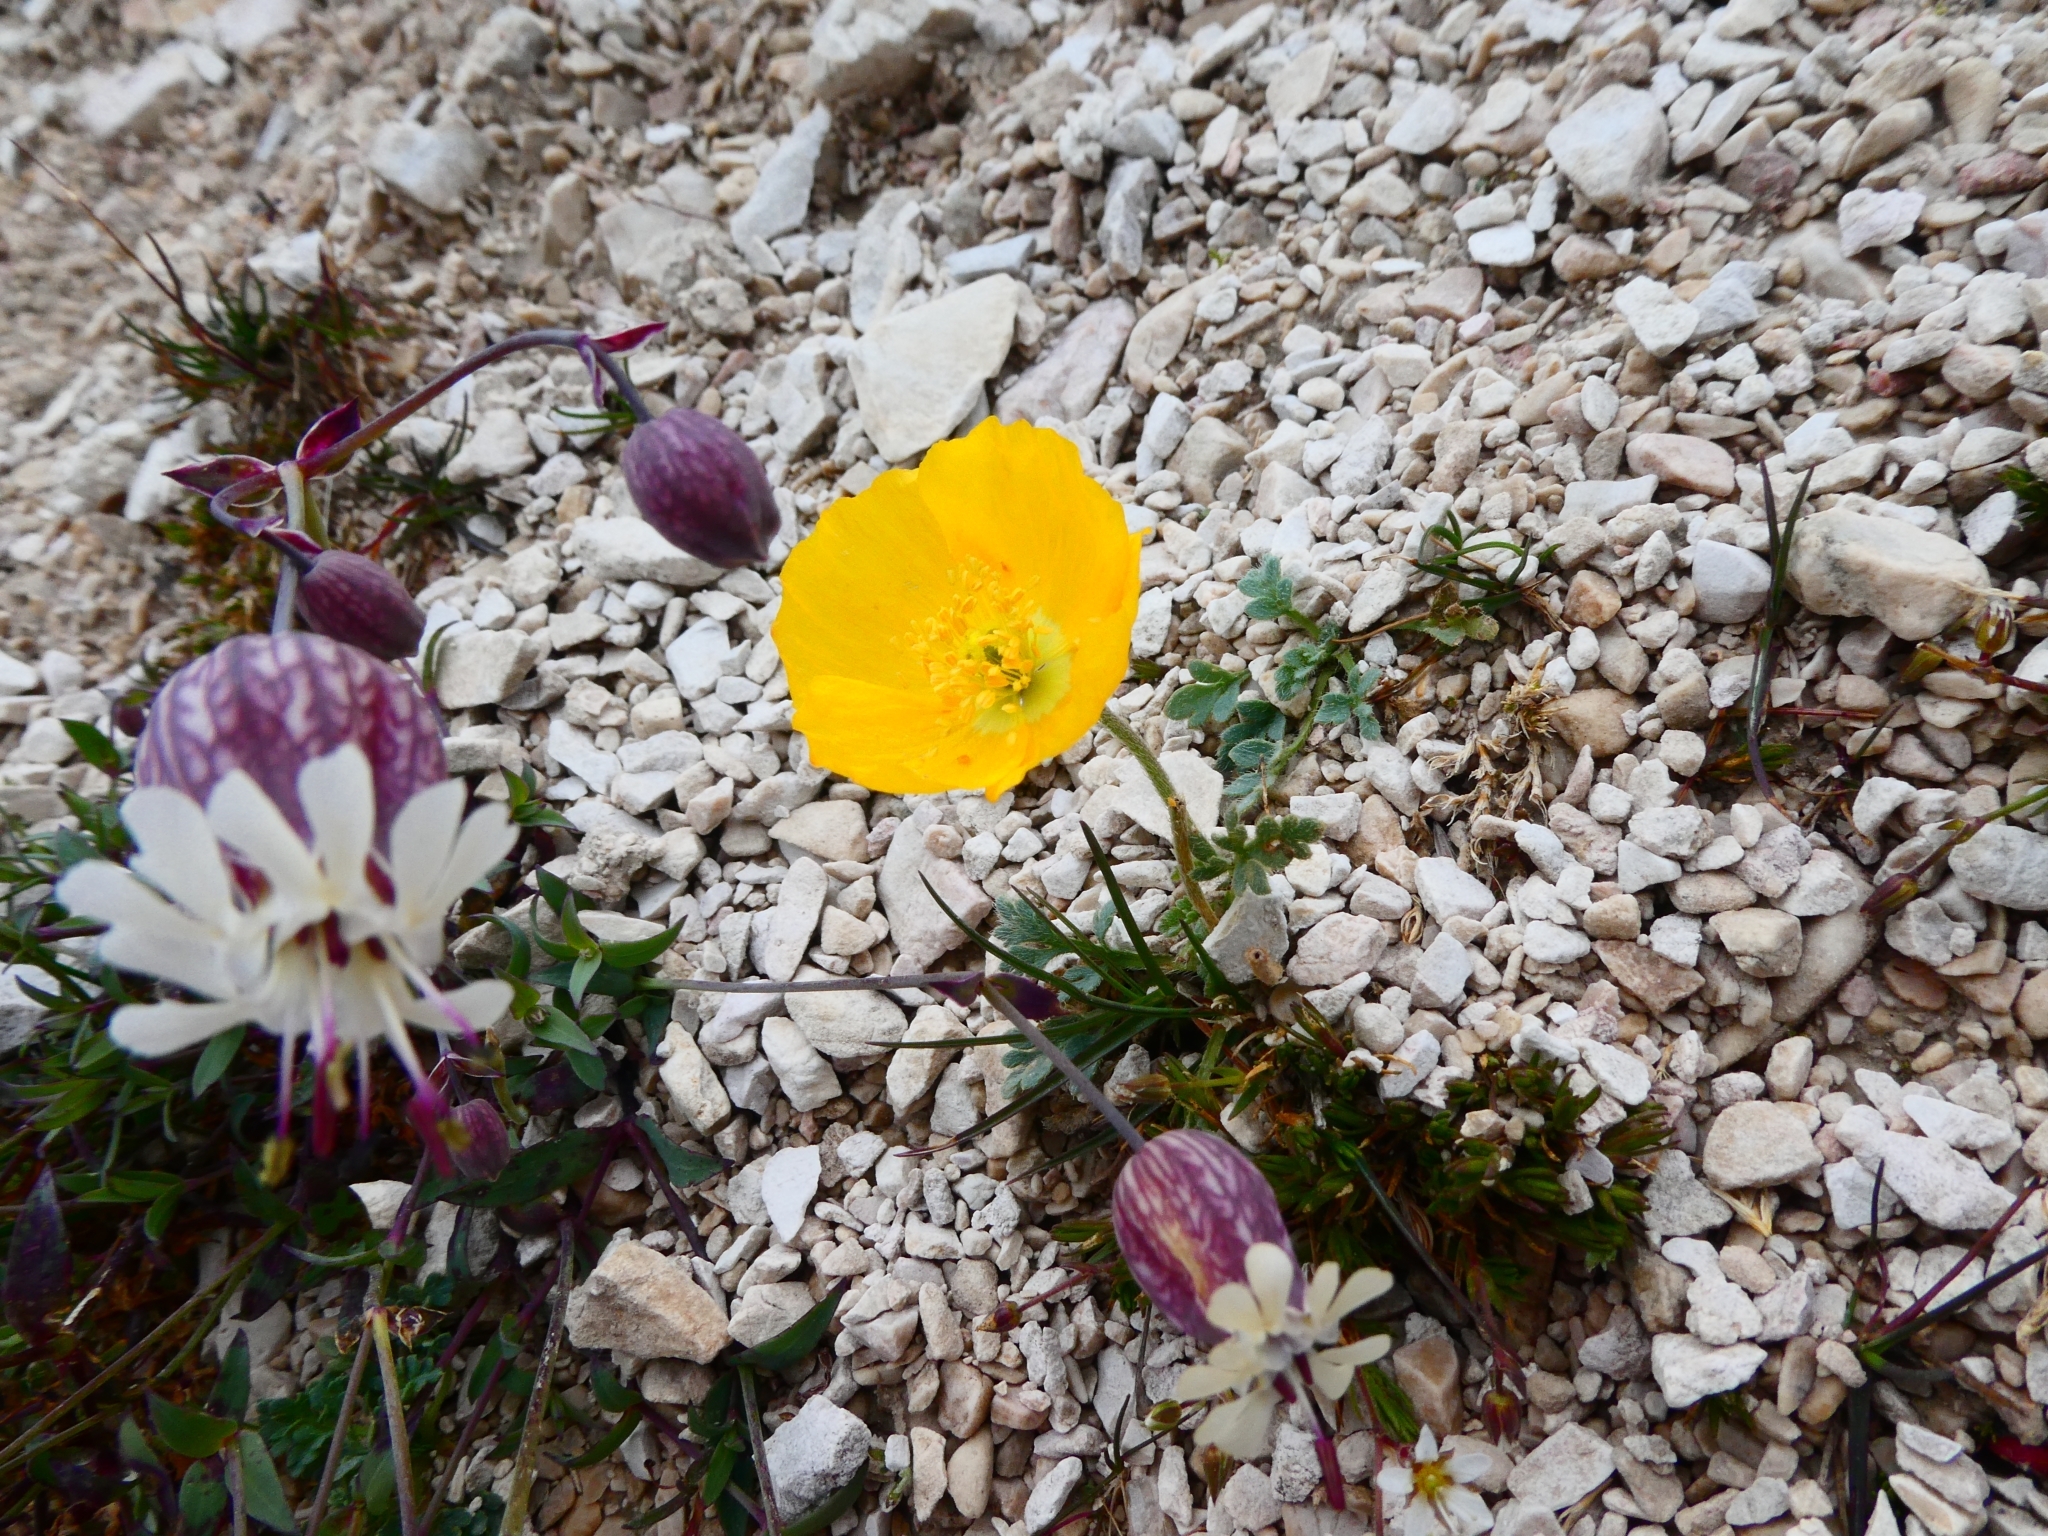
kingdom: Plantae
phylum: Tracheophyta
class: Magnoliopsida
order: Ranunculales
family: Papaveraceae
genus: Papaver
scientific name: Papaver alpinum
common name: Austrian poppy
